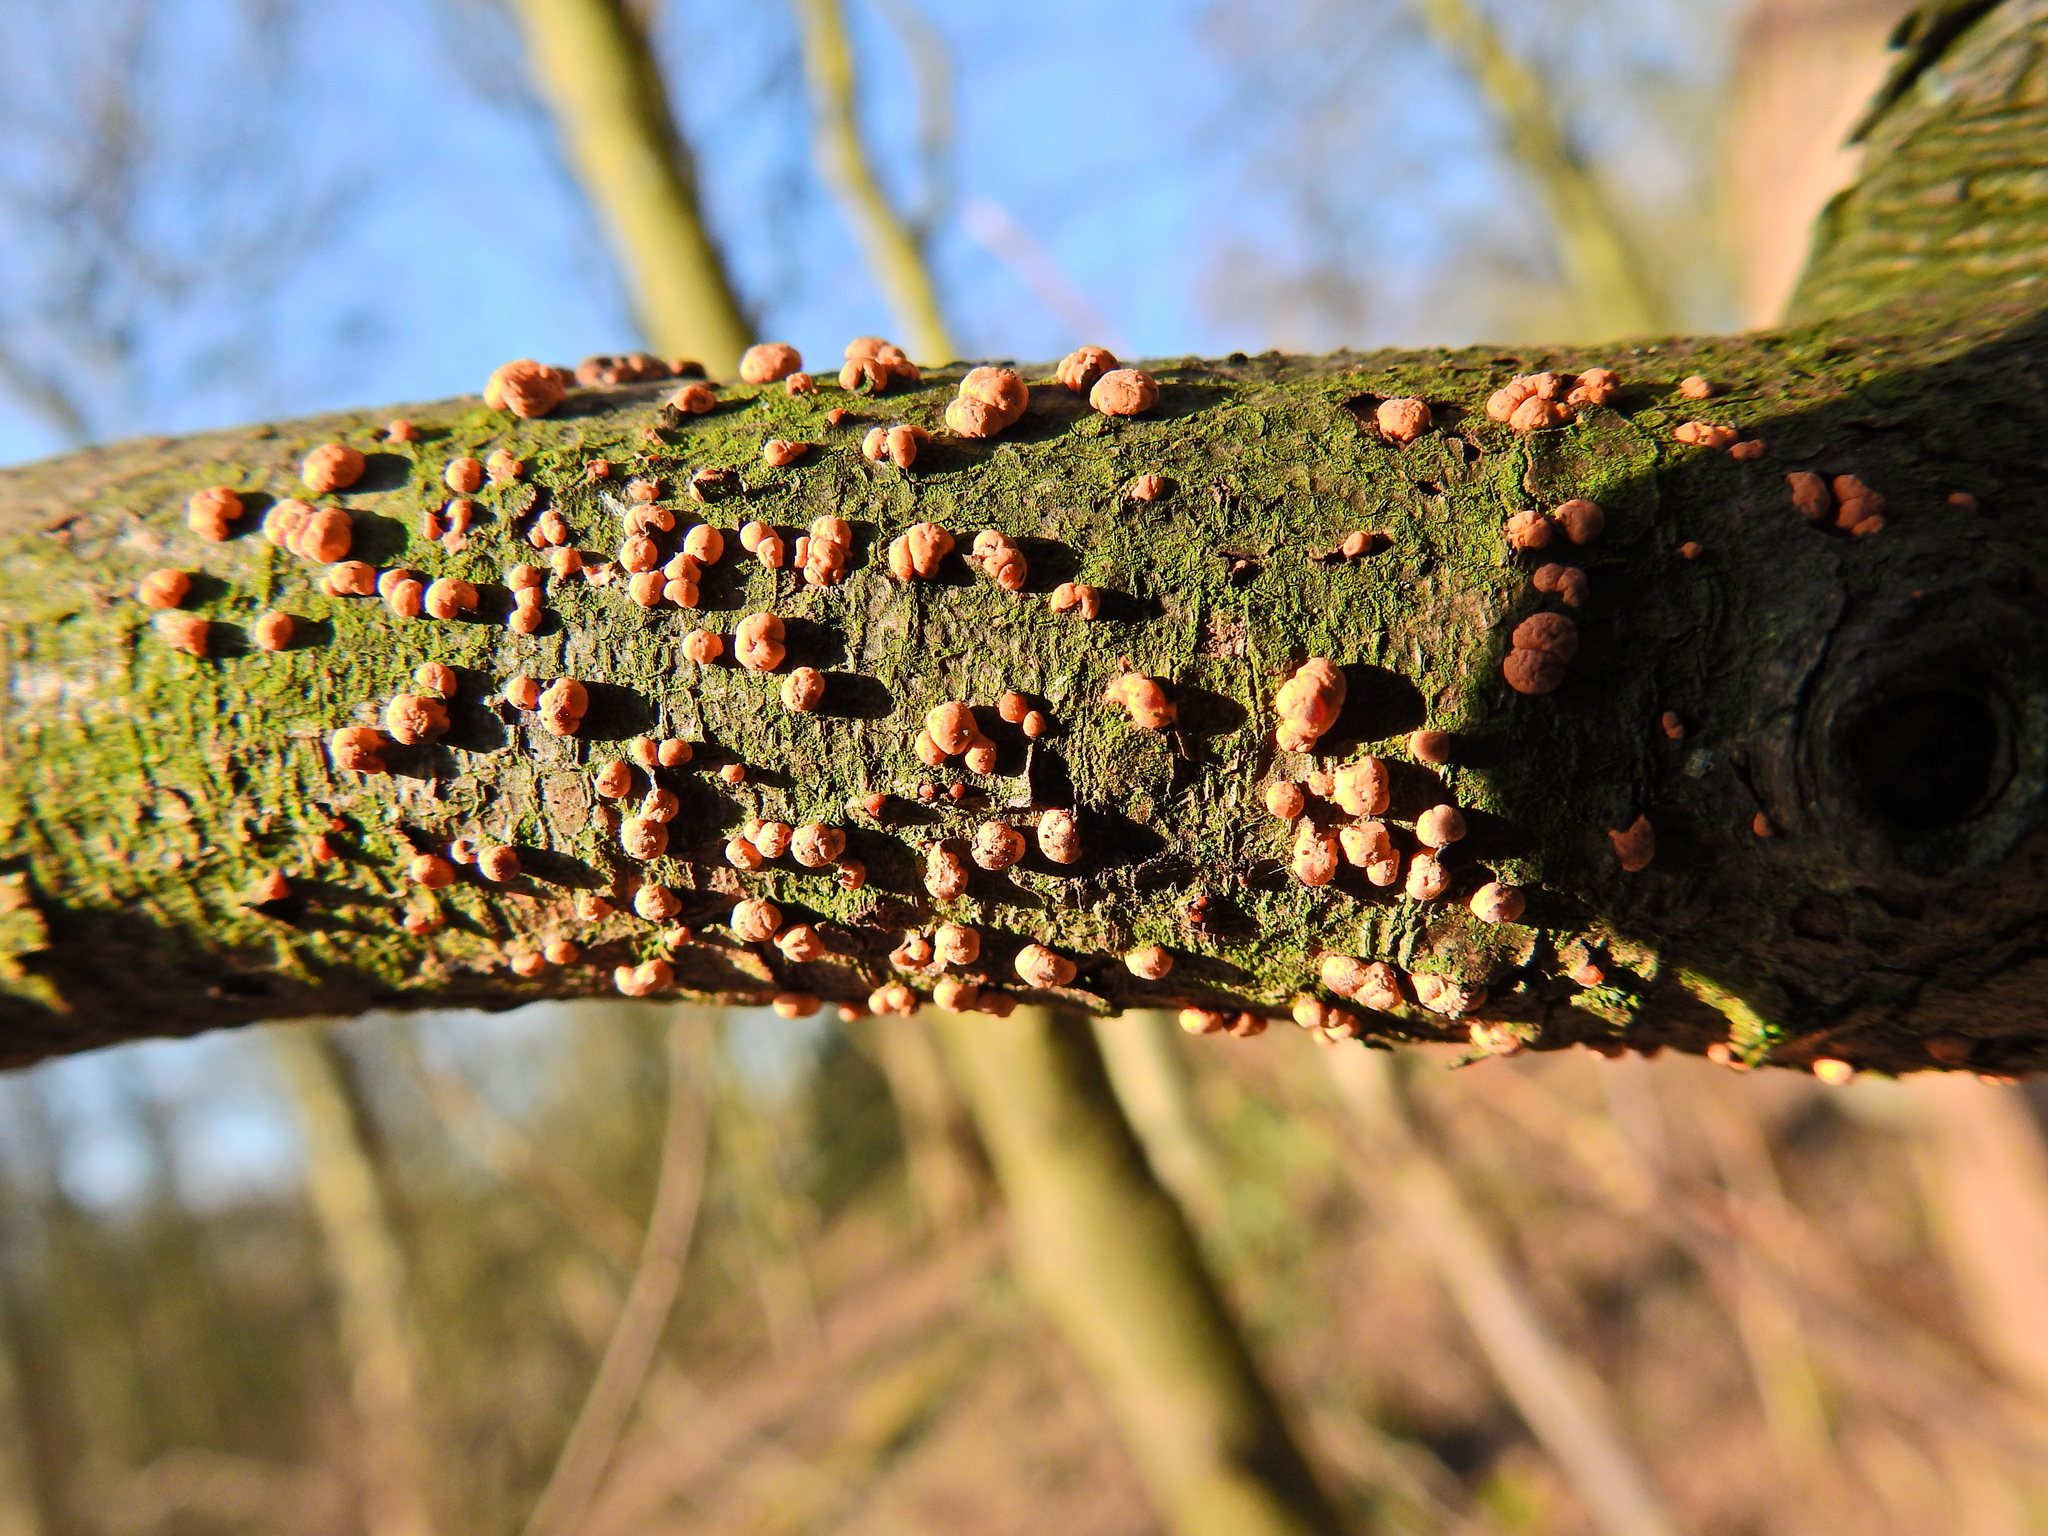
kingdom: Fungi
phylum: Ascomycota
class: Sordariomycetes
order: Hypocreales
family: Nectriaceae
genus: Nectria
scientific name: Nectria cinnabarina
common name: Coral spot
